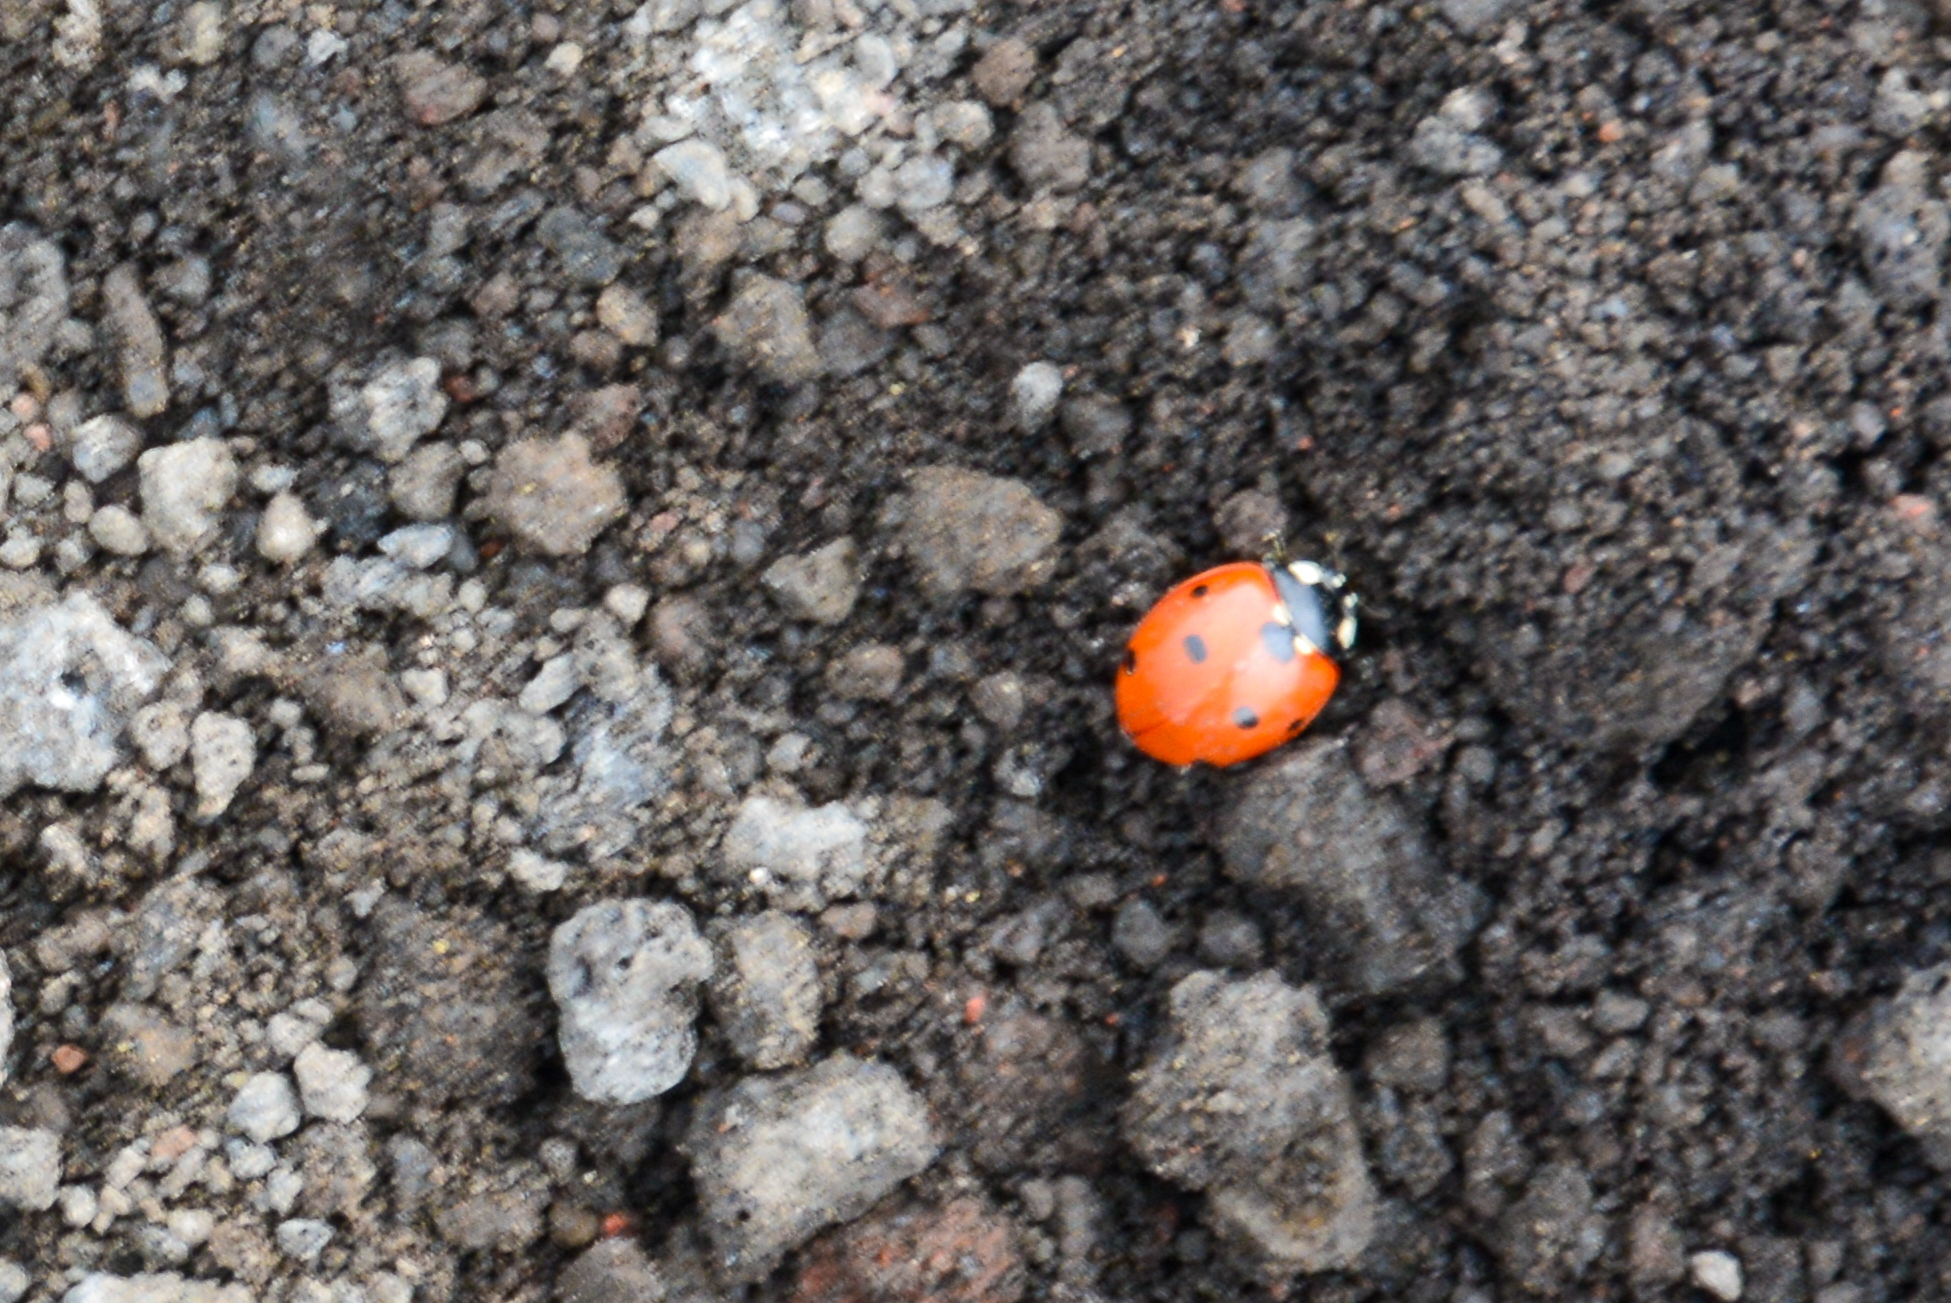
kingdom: Animalia
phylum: Arthropoda
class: Insecta
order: Coleoptera
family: Coccinellidae
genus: Coccinella
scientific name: Coccinella septempunctata
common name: Sevenspotted lady beetle
